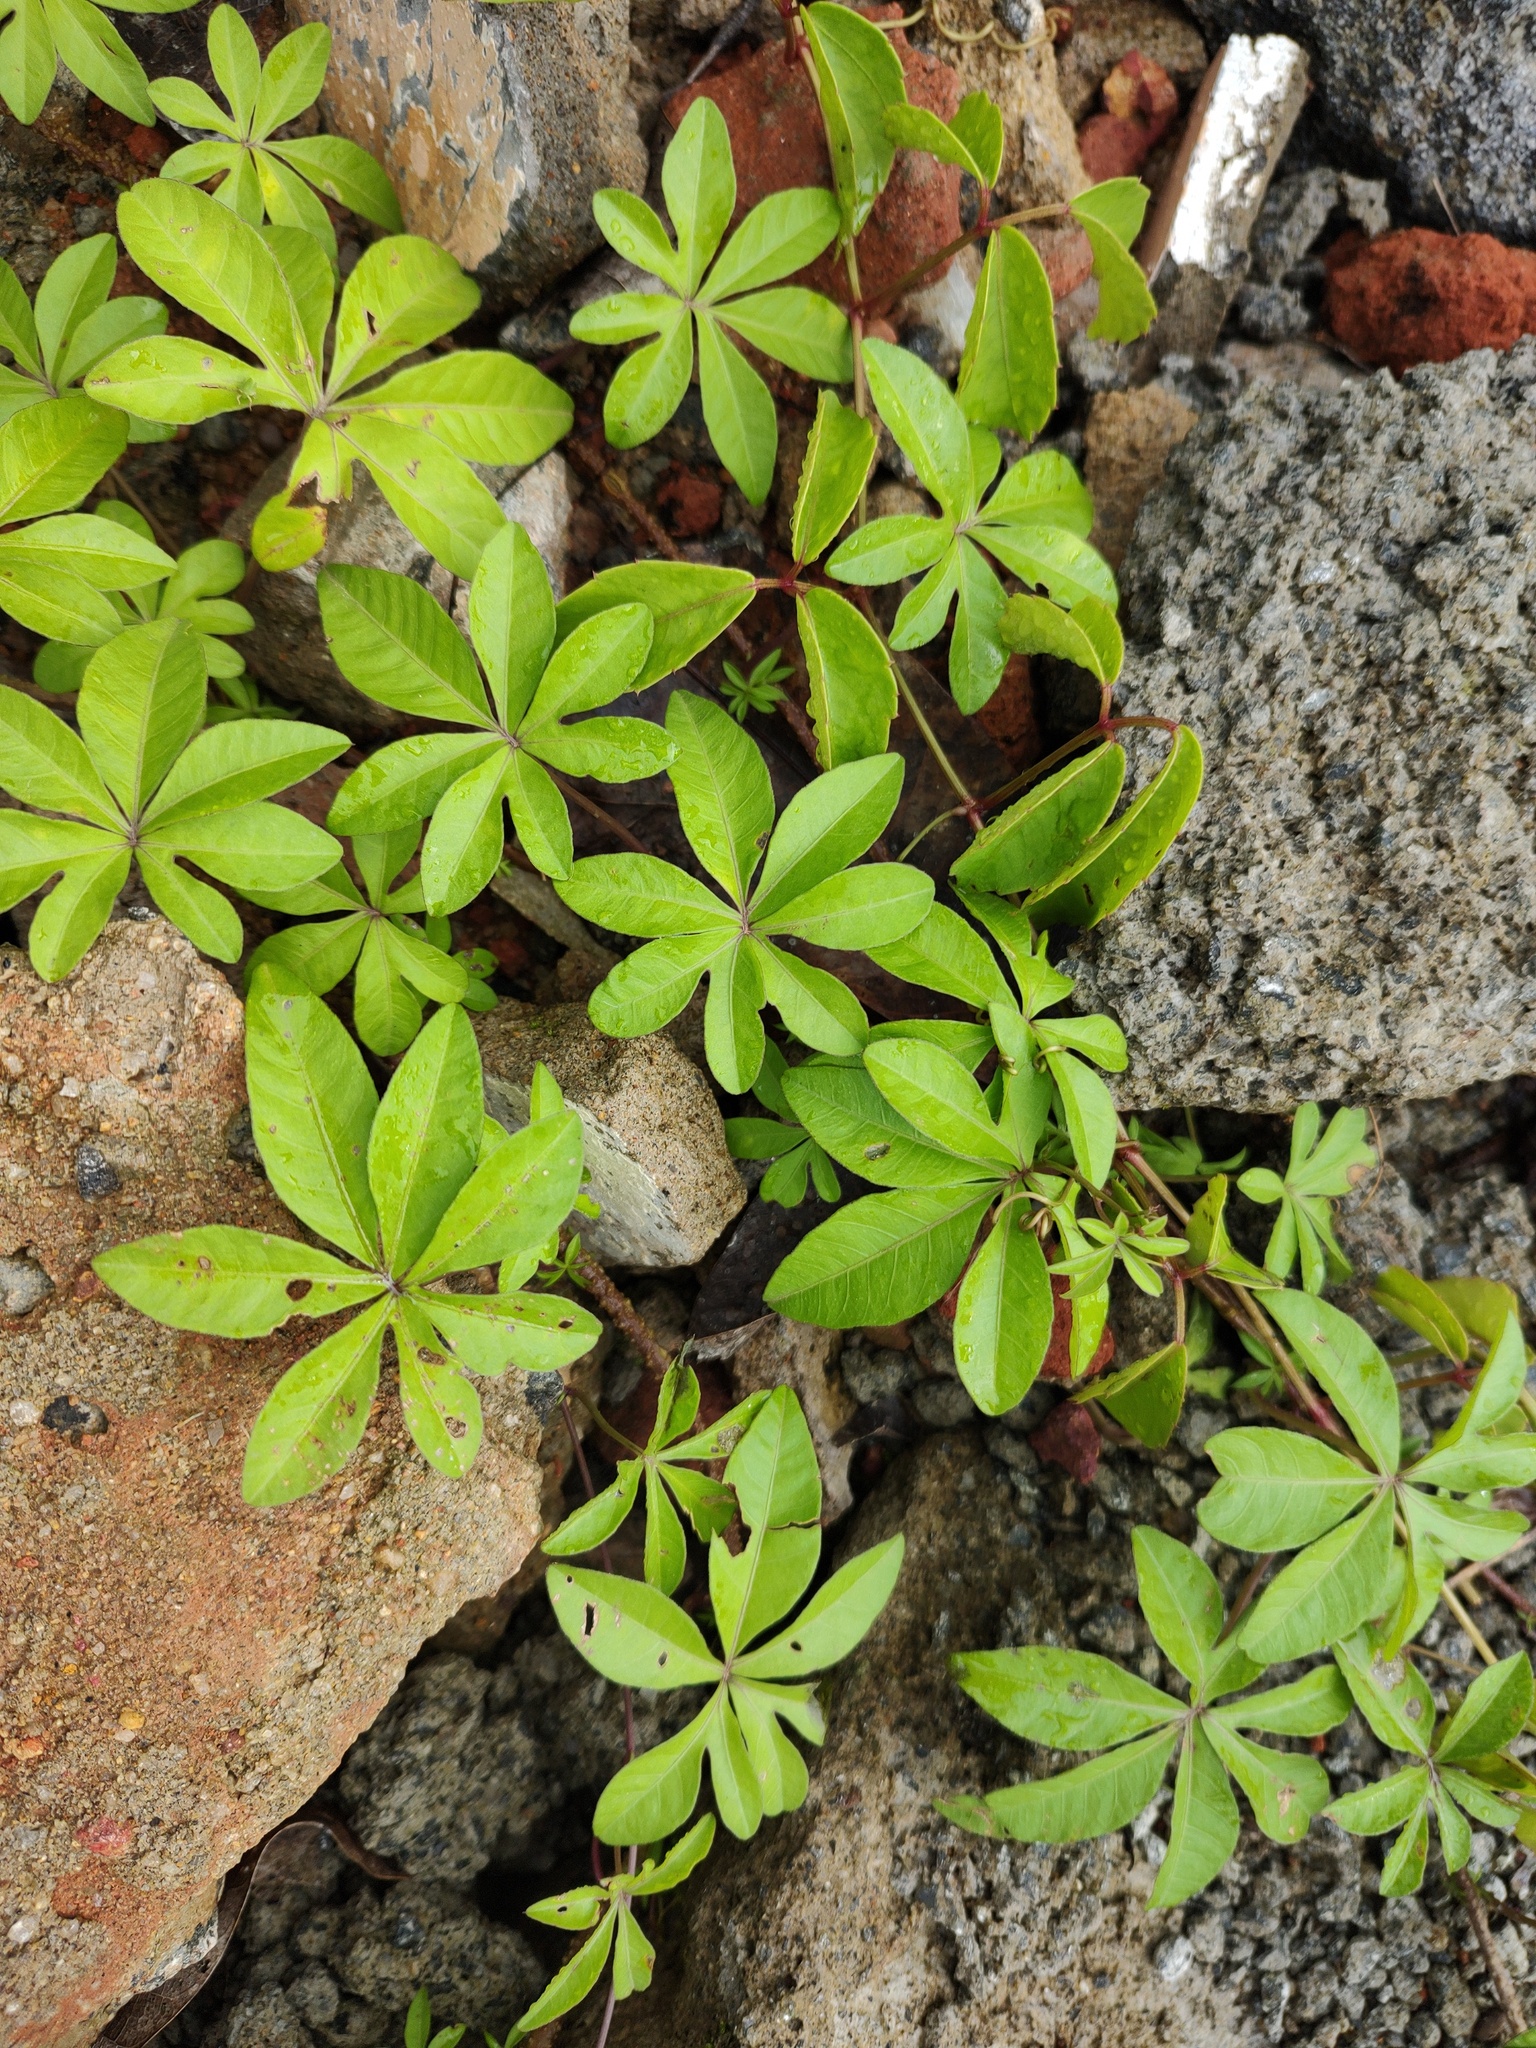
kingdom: Plantae
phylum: Tracheophyta
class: Magnoliopsida
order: Solanales
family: Convolvulaceae
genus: Ipomoea
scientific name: Ipomoea cairica
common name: Mile a minute vine
